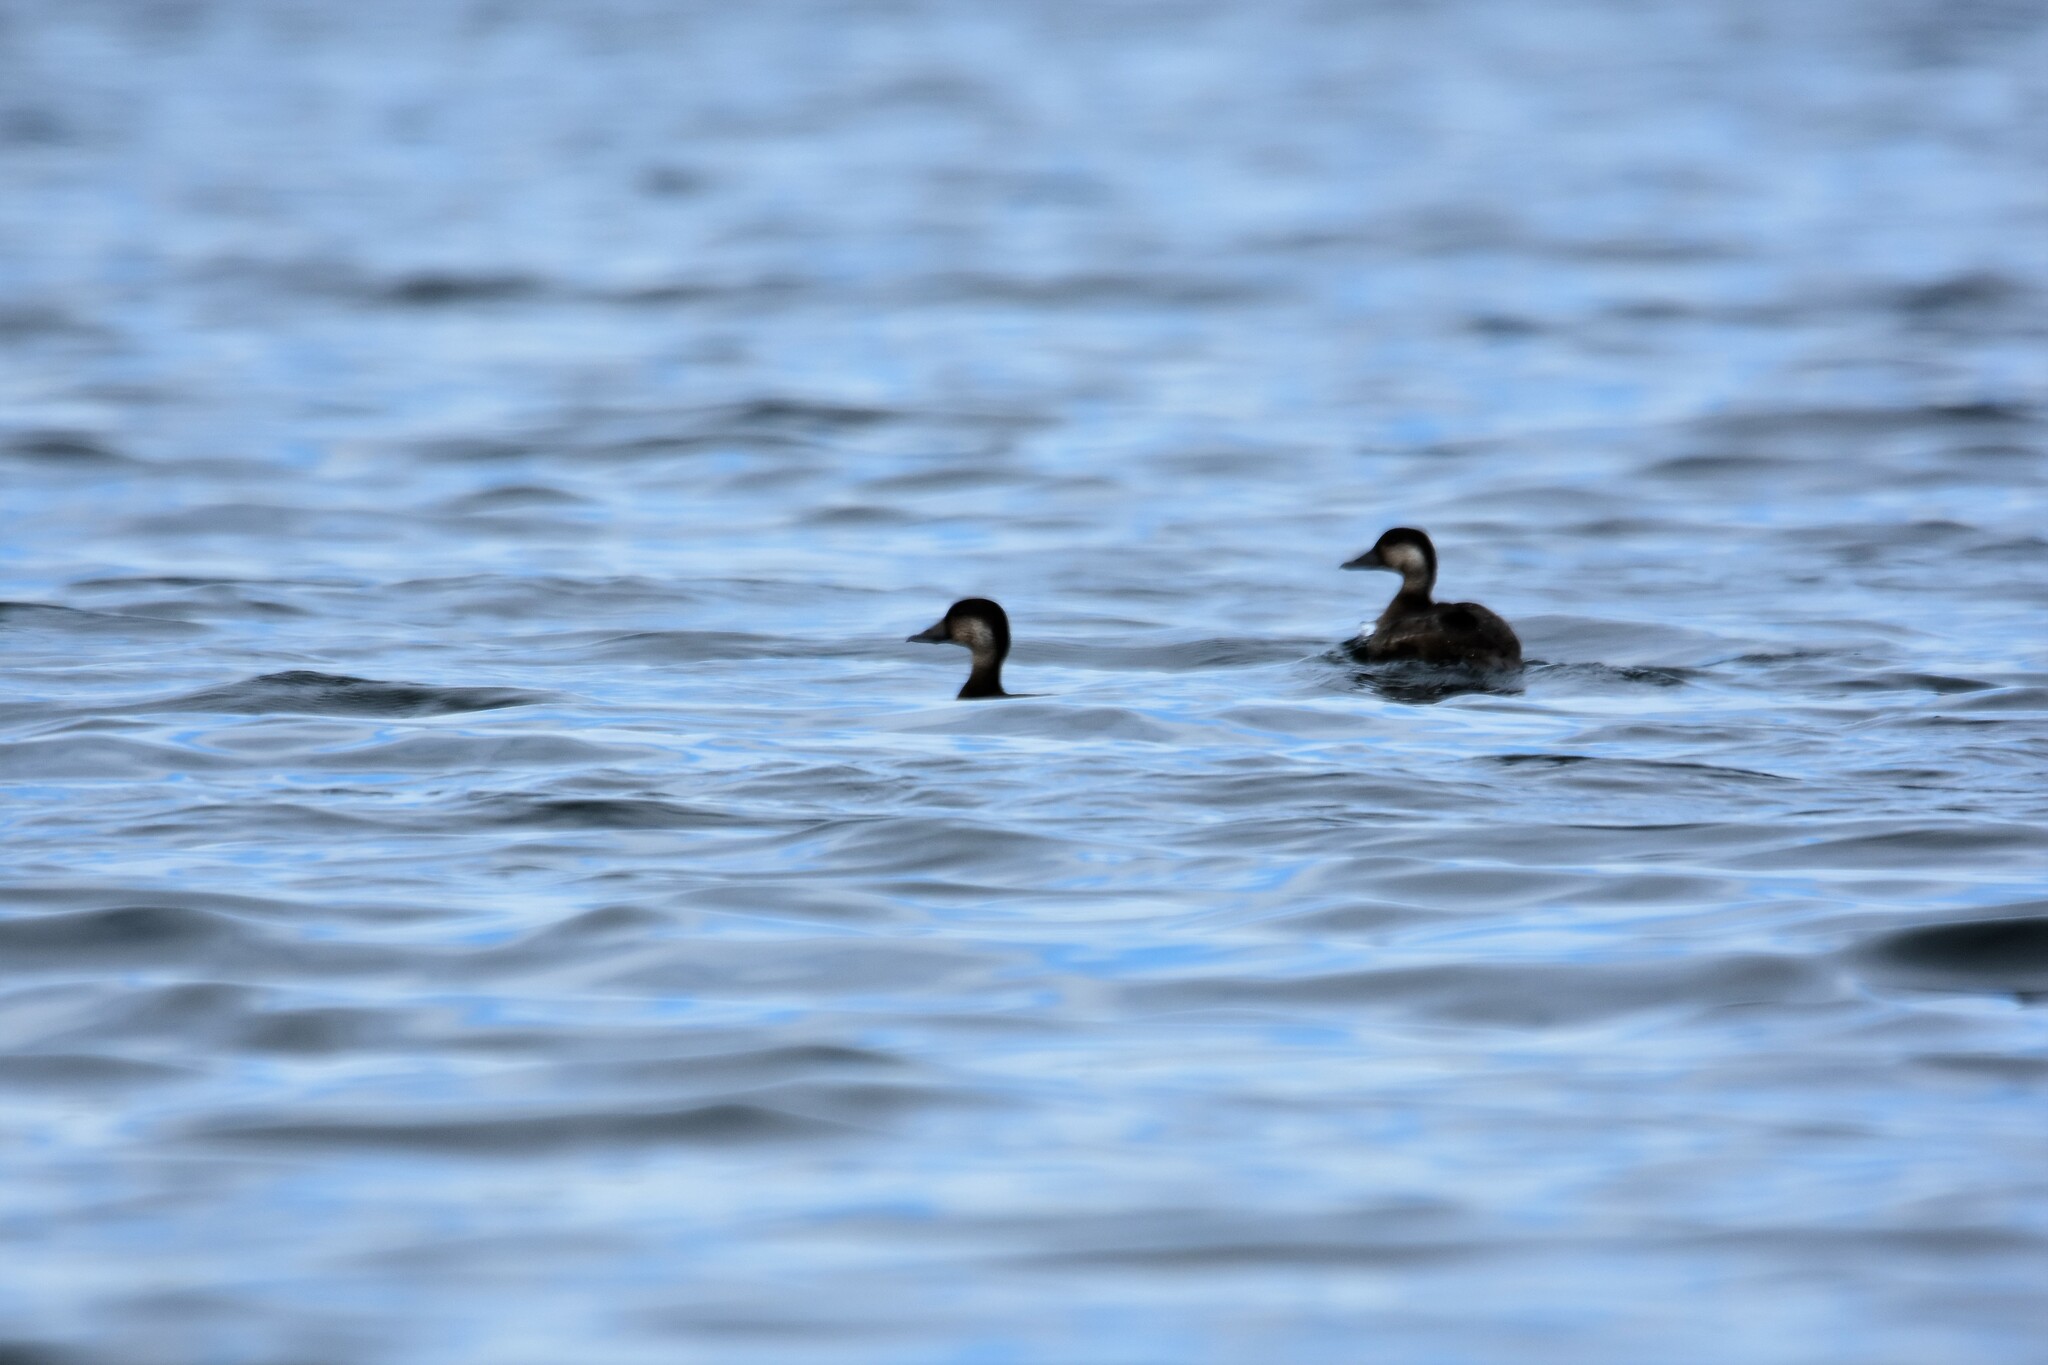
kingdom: Animalia
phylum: Chordata
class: Aves
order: Anseriformes
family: Anatidae
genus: Melanitta
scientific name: Melanitta americana
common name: Black scoter
